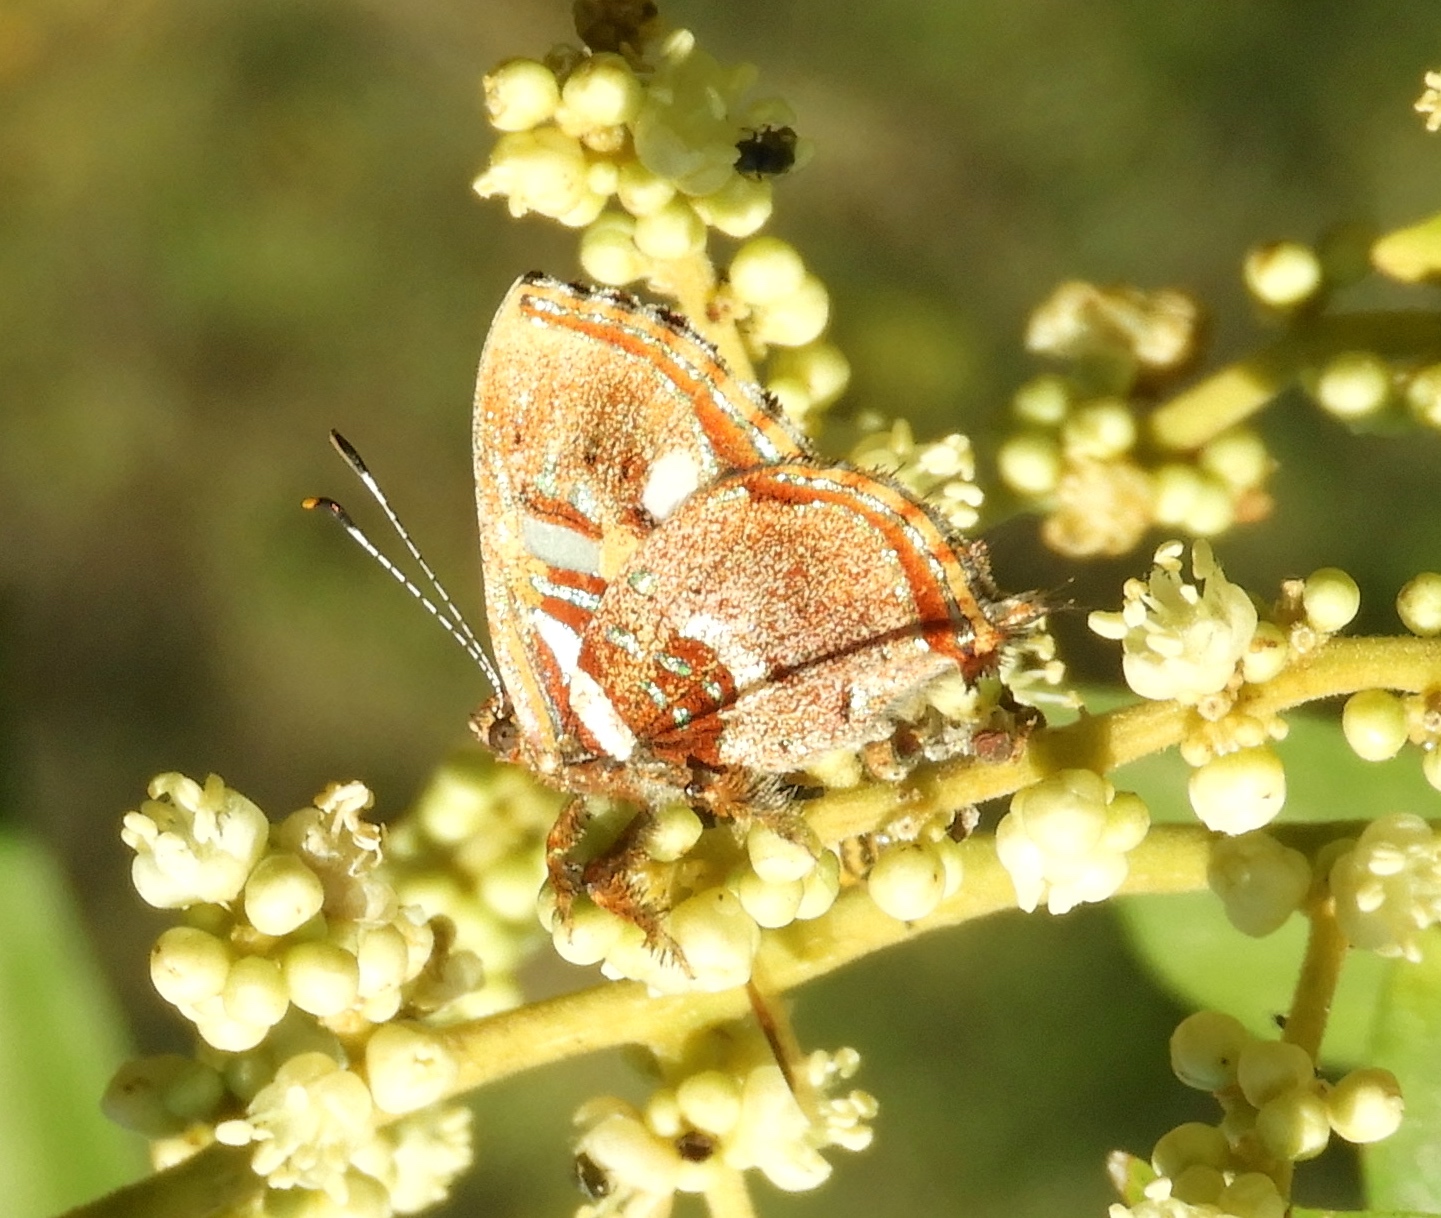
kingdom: Animalia
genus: Anteros
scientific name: Anteros carausius
